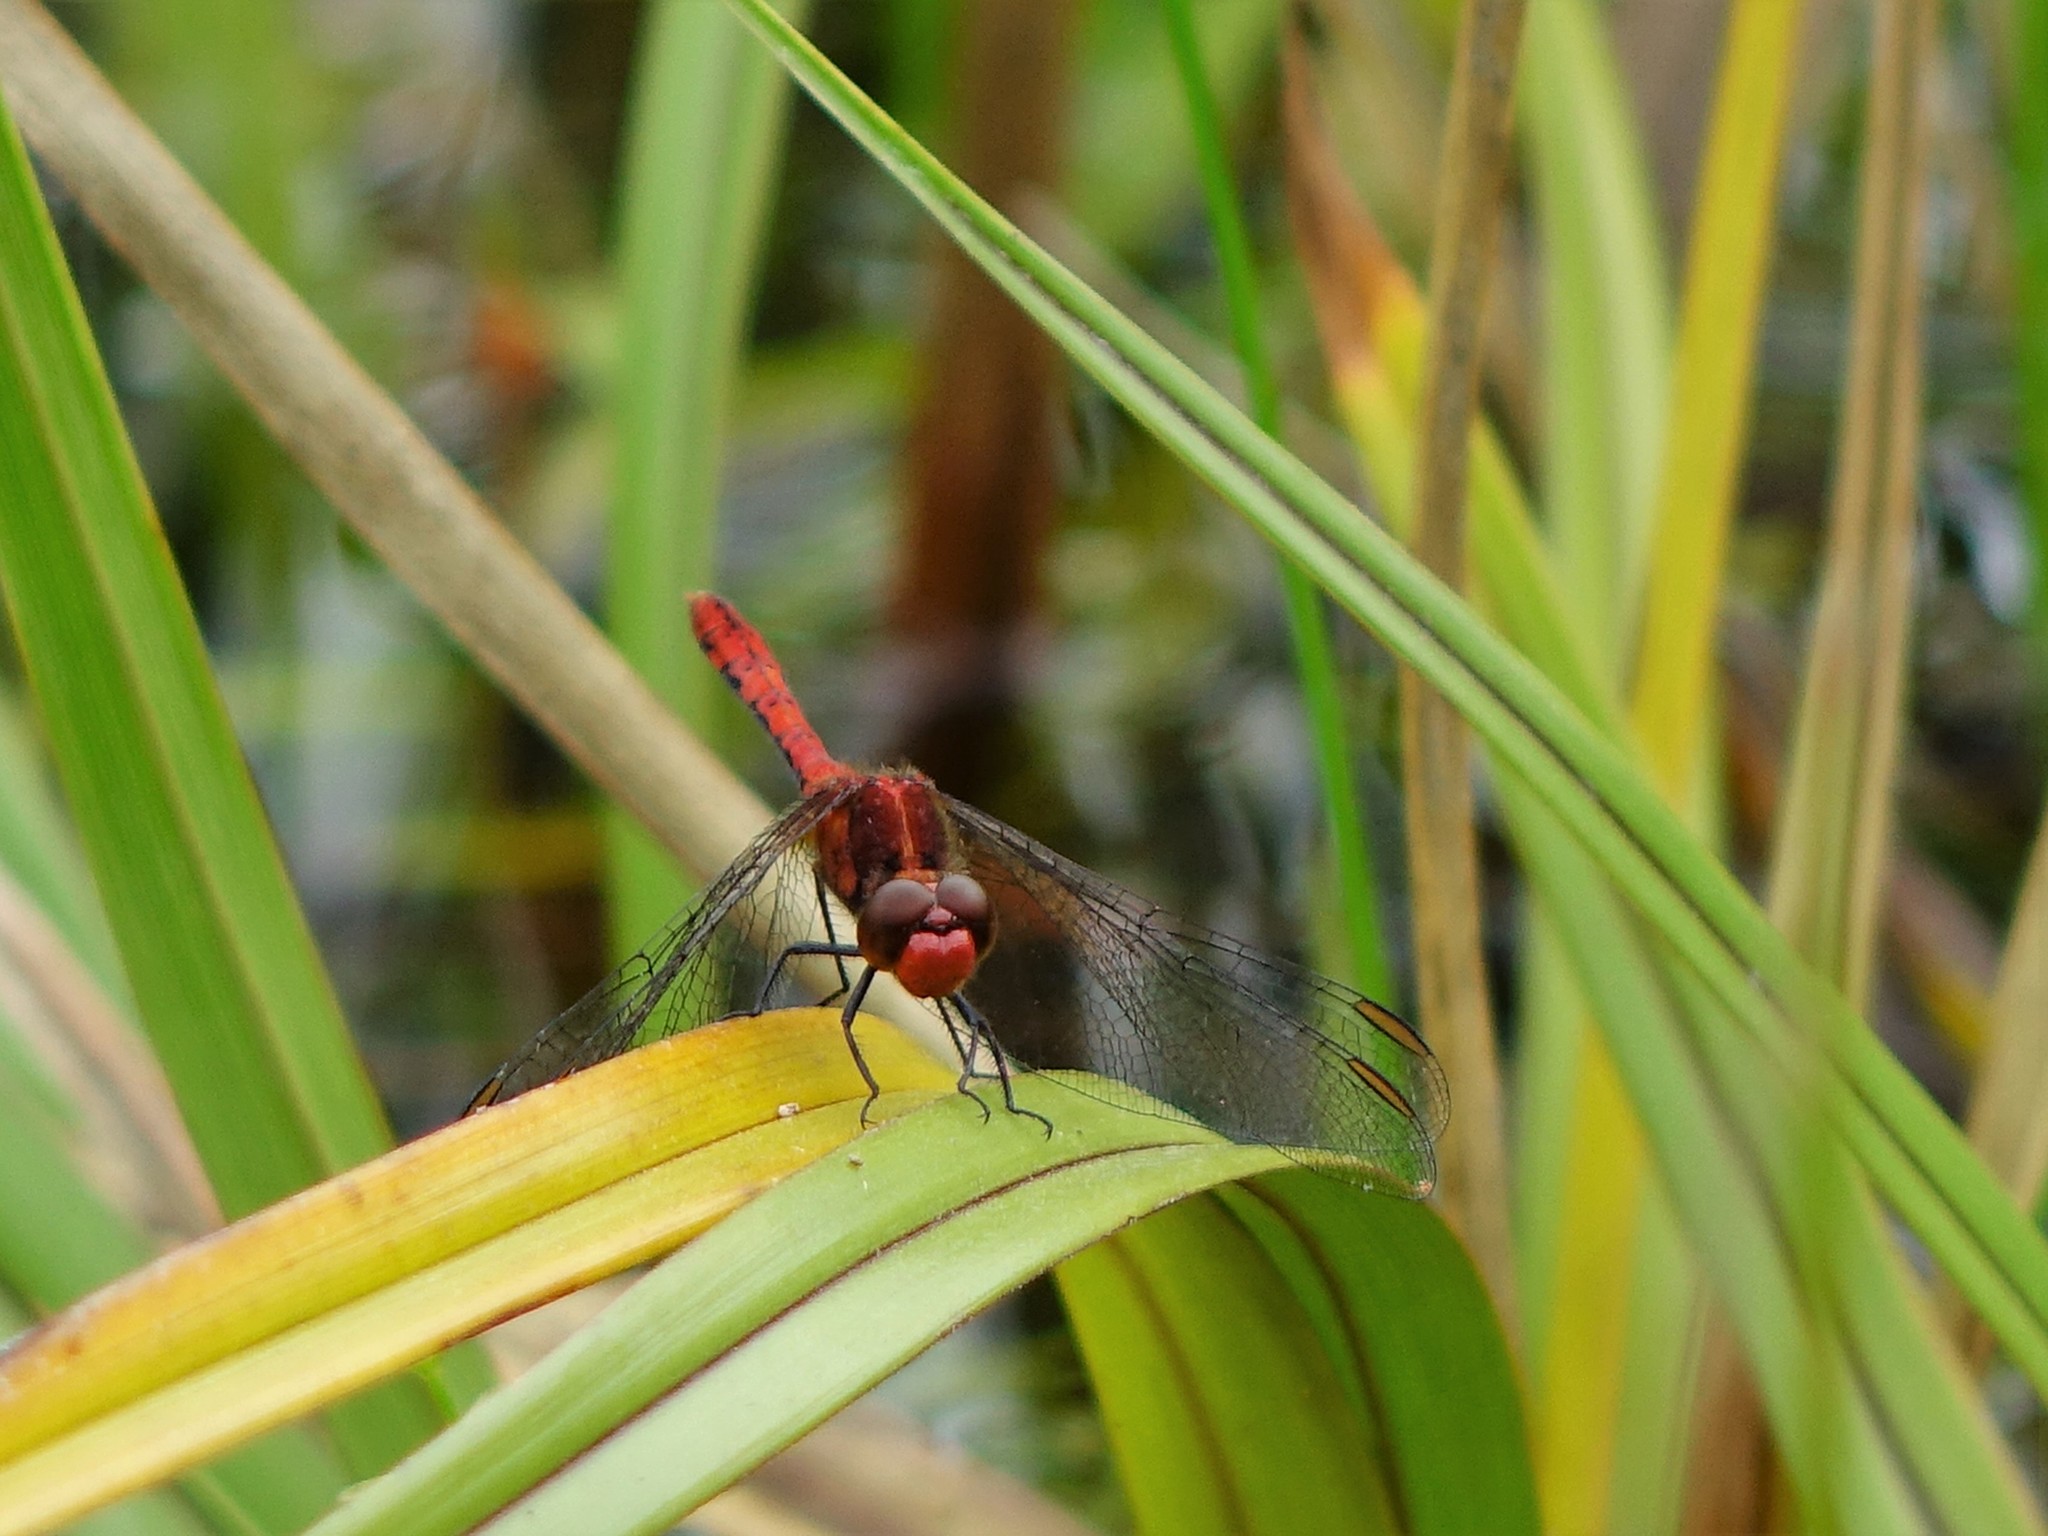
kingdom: Animalia
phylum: Arthropoda
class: Insecta
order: Odonata
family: Libellulidae
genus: Diplacodes
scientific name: Diplacodes bipunctata
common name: Red percher dragonfly
